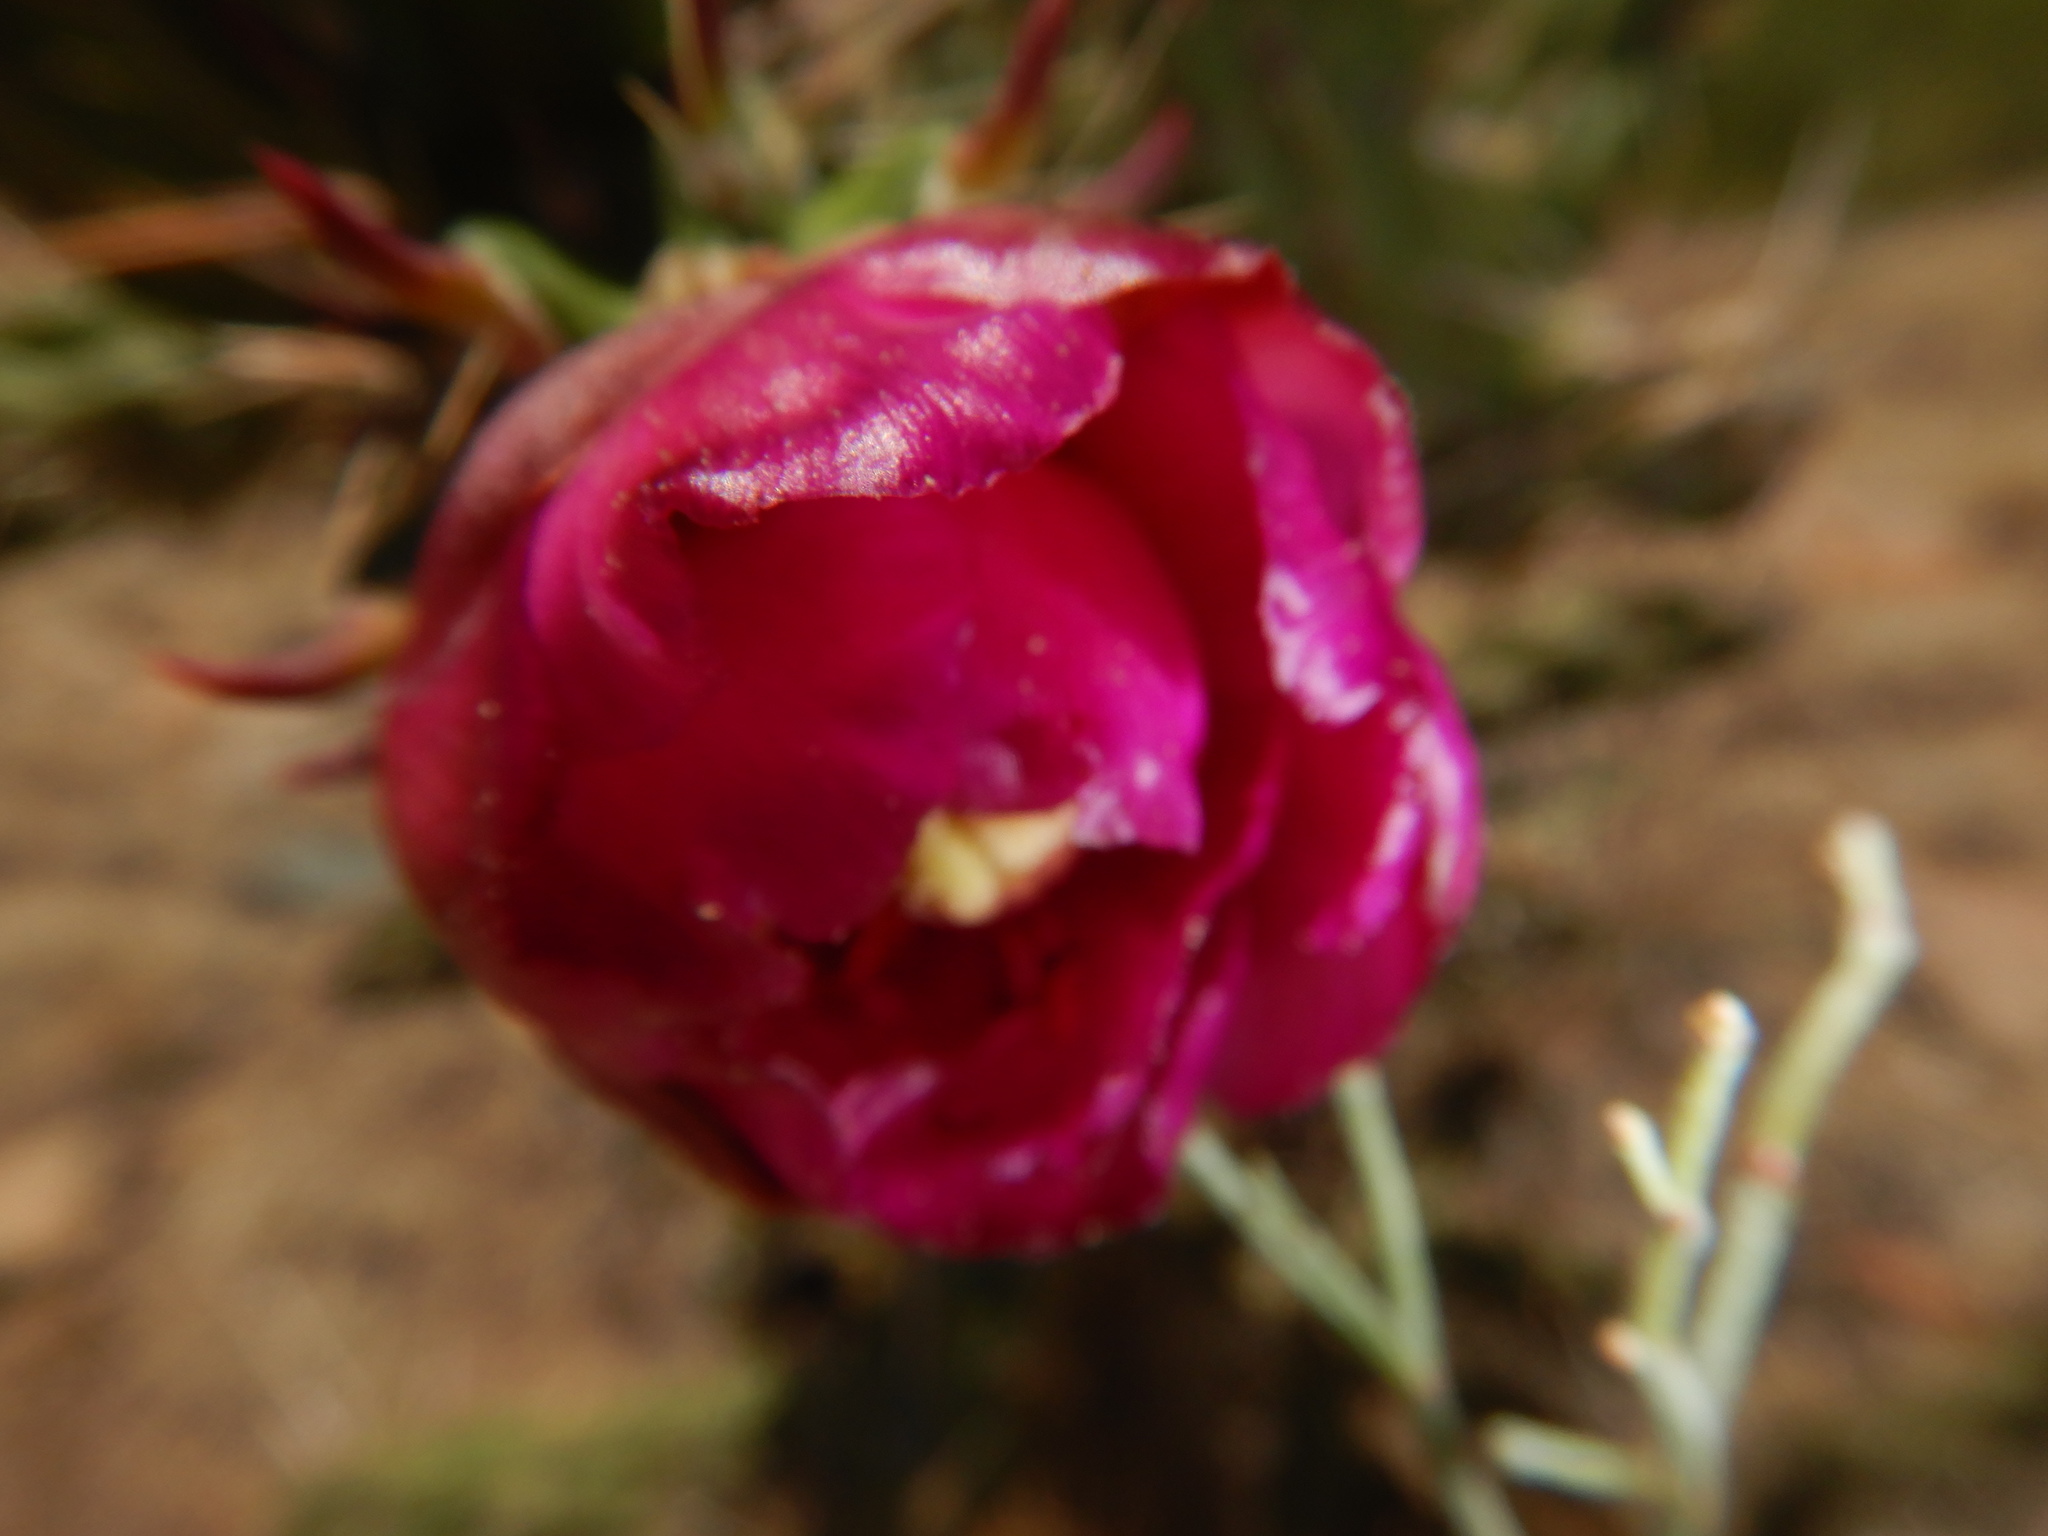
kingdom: Plantae
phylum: Tracheophyta
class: Magnoliopsida
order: Caryophyllales
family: Cactaceae
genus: Cylindropuntia
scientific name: Cylindropuntia imbricata
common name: Candelabrum cactus
